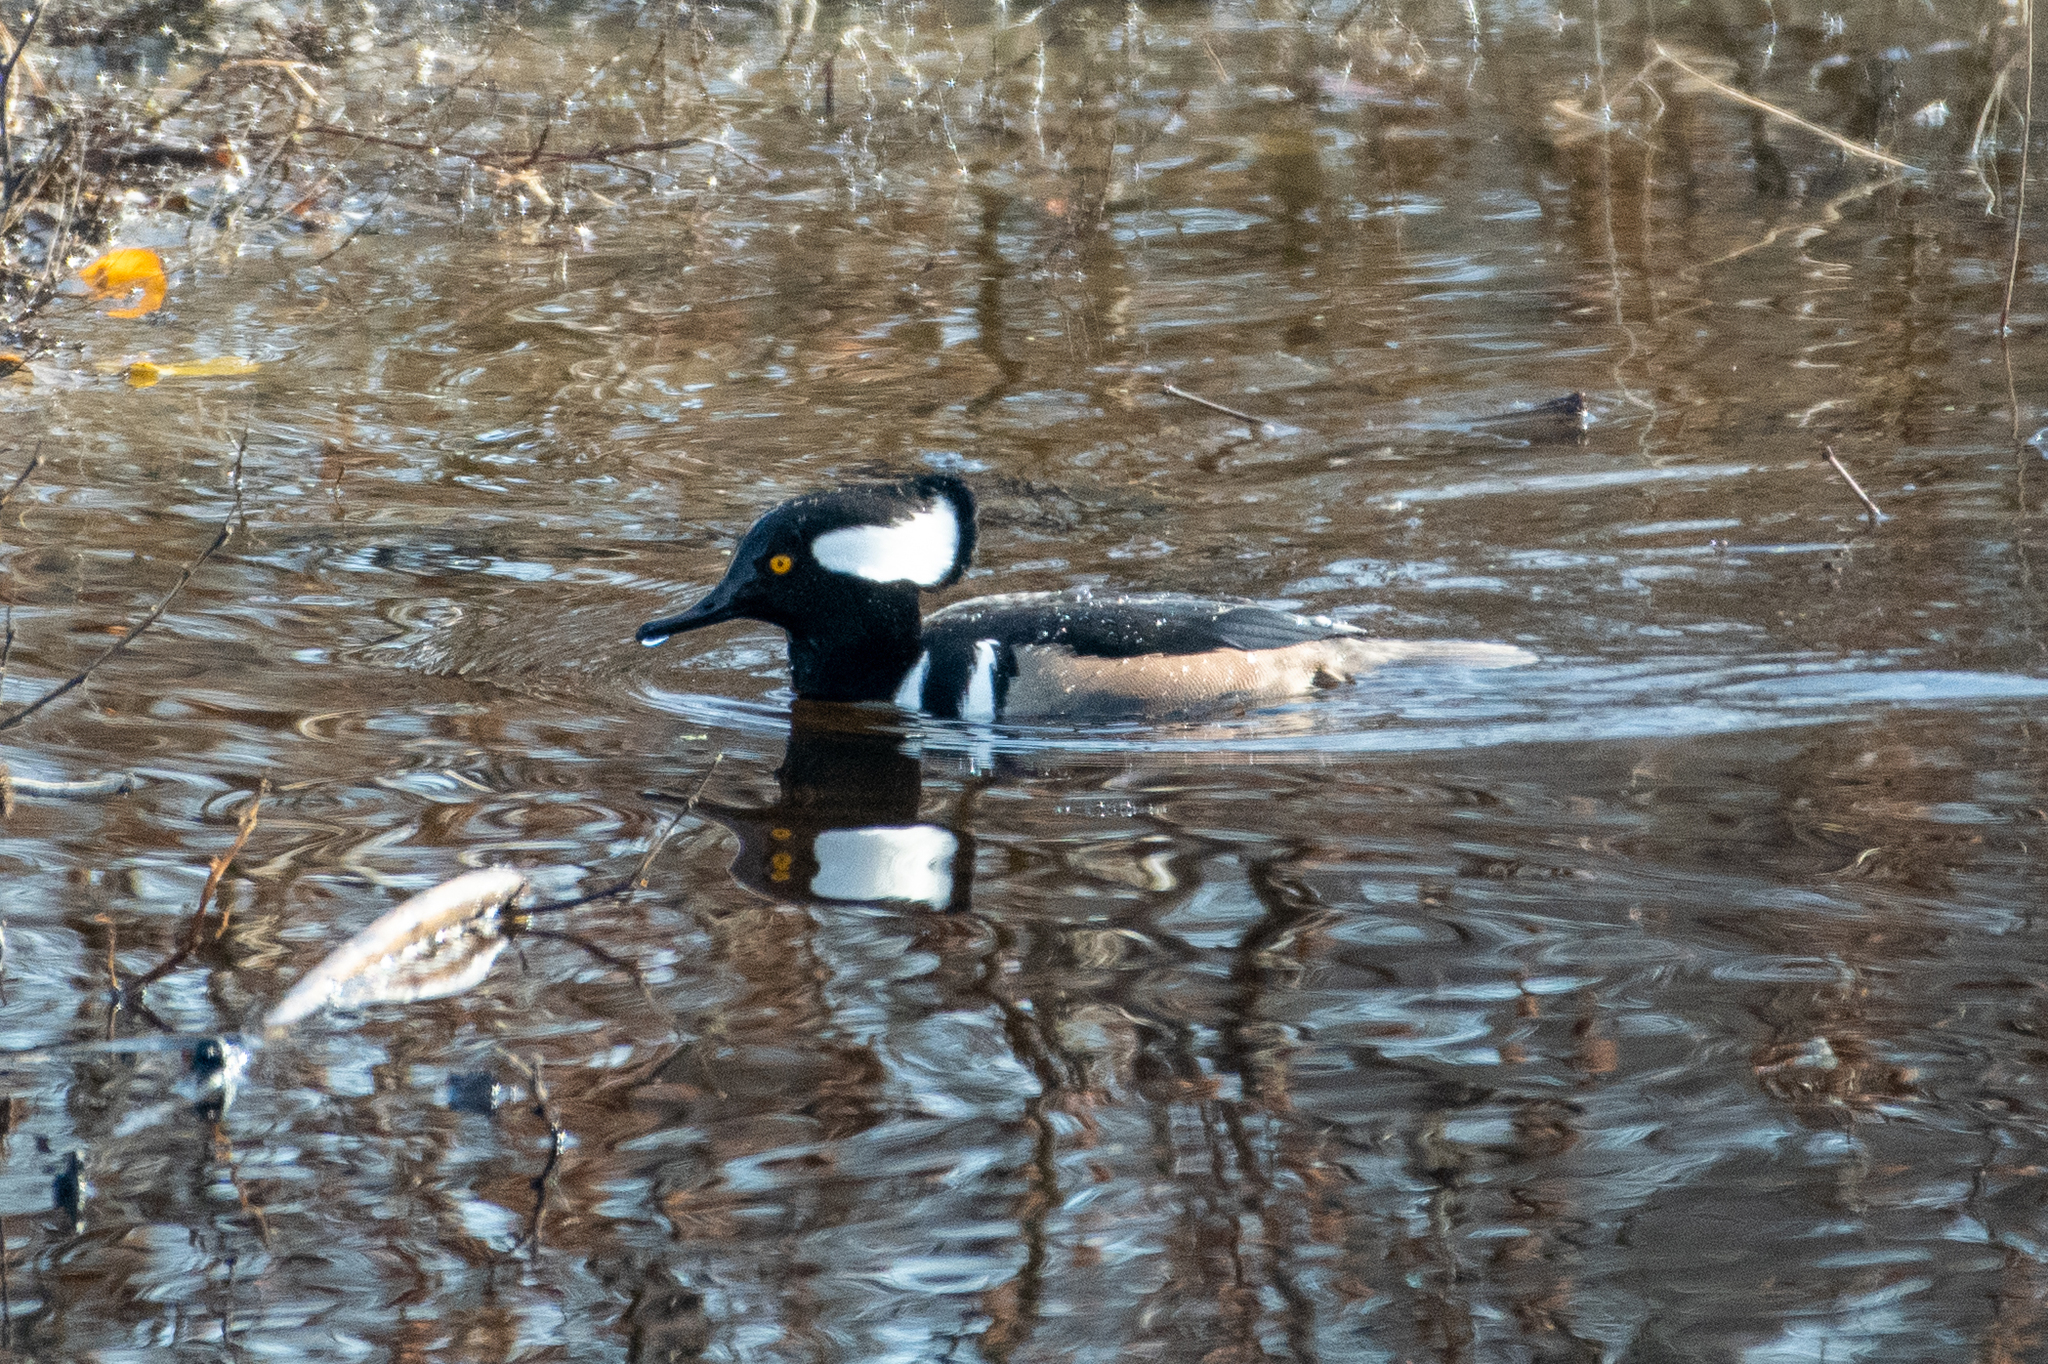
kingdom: Animalia
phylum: Chordata
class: Aves
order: Anseriformes
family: Anatidae
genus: Lophodytes
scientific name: Lophodytes cucullatus
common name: Hooded merganser
